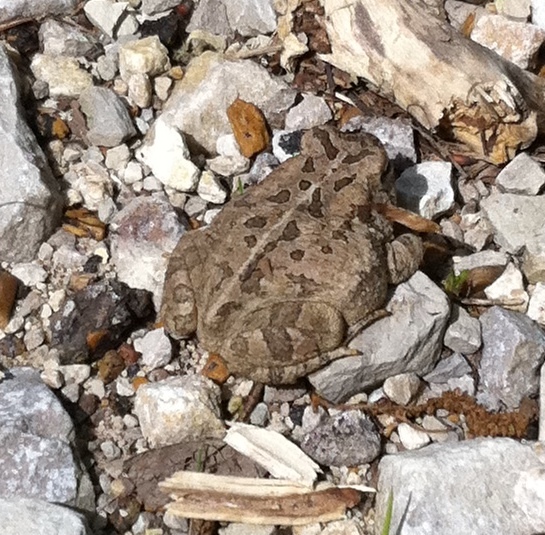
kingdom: Animalia
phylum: Chordata
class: Amphibia
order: Anura
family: Bufonidae
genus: Anaxyrus
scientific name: Anaxyrus fowleri
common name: Fowler's toad
